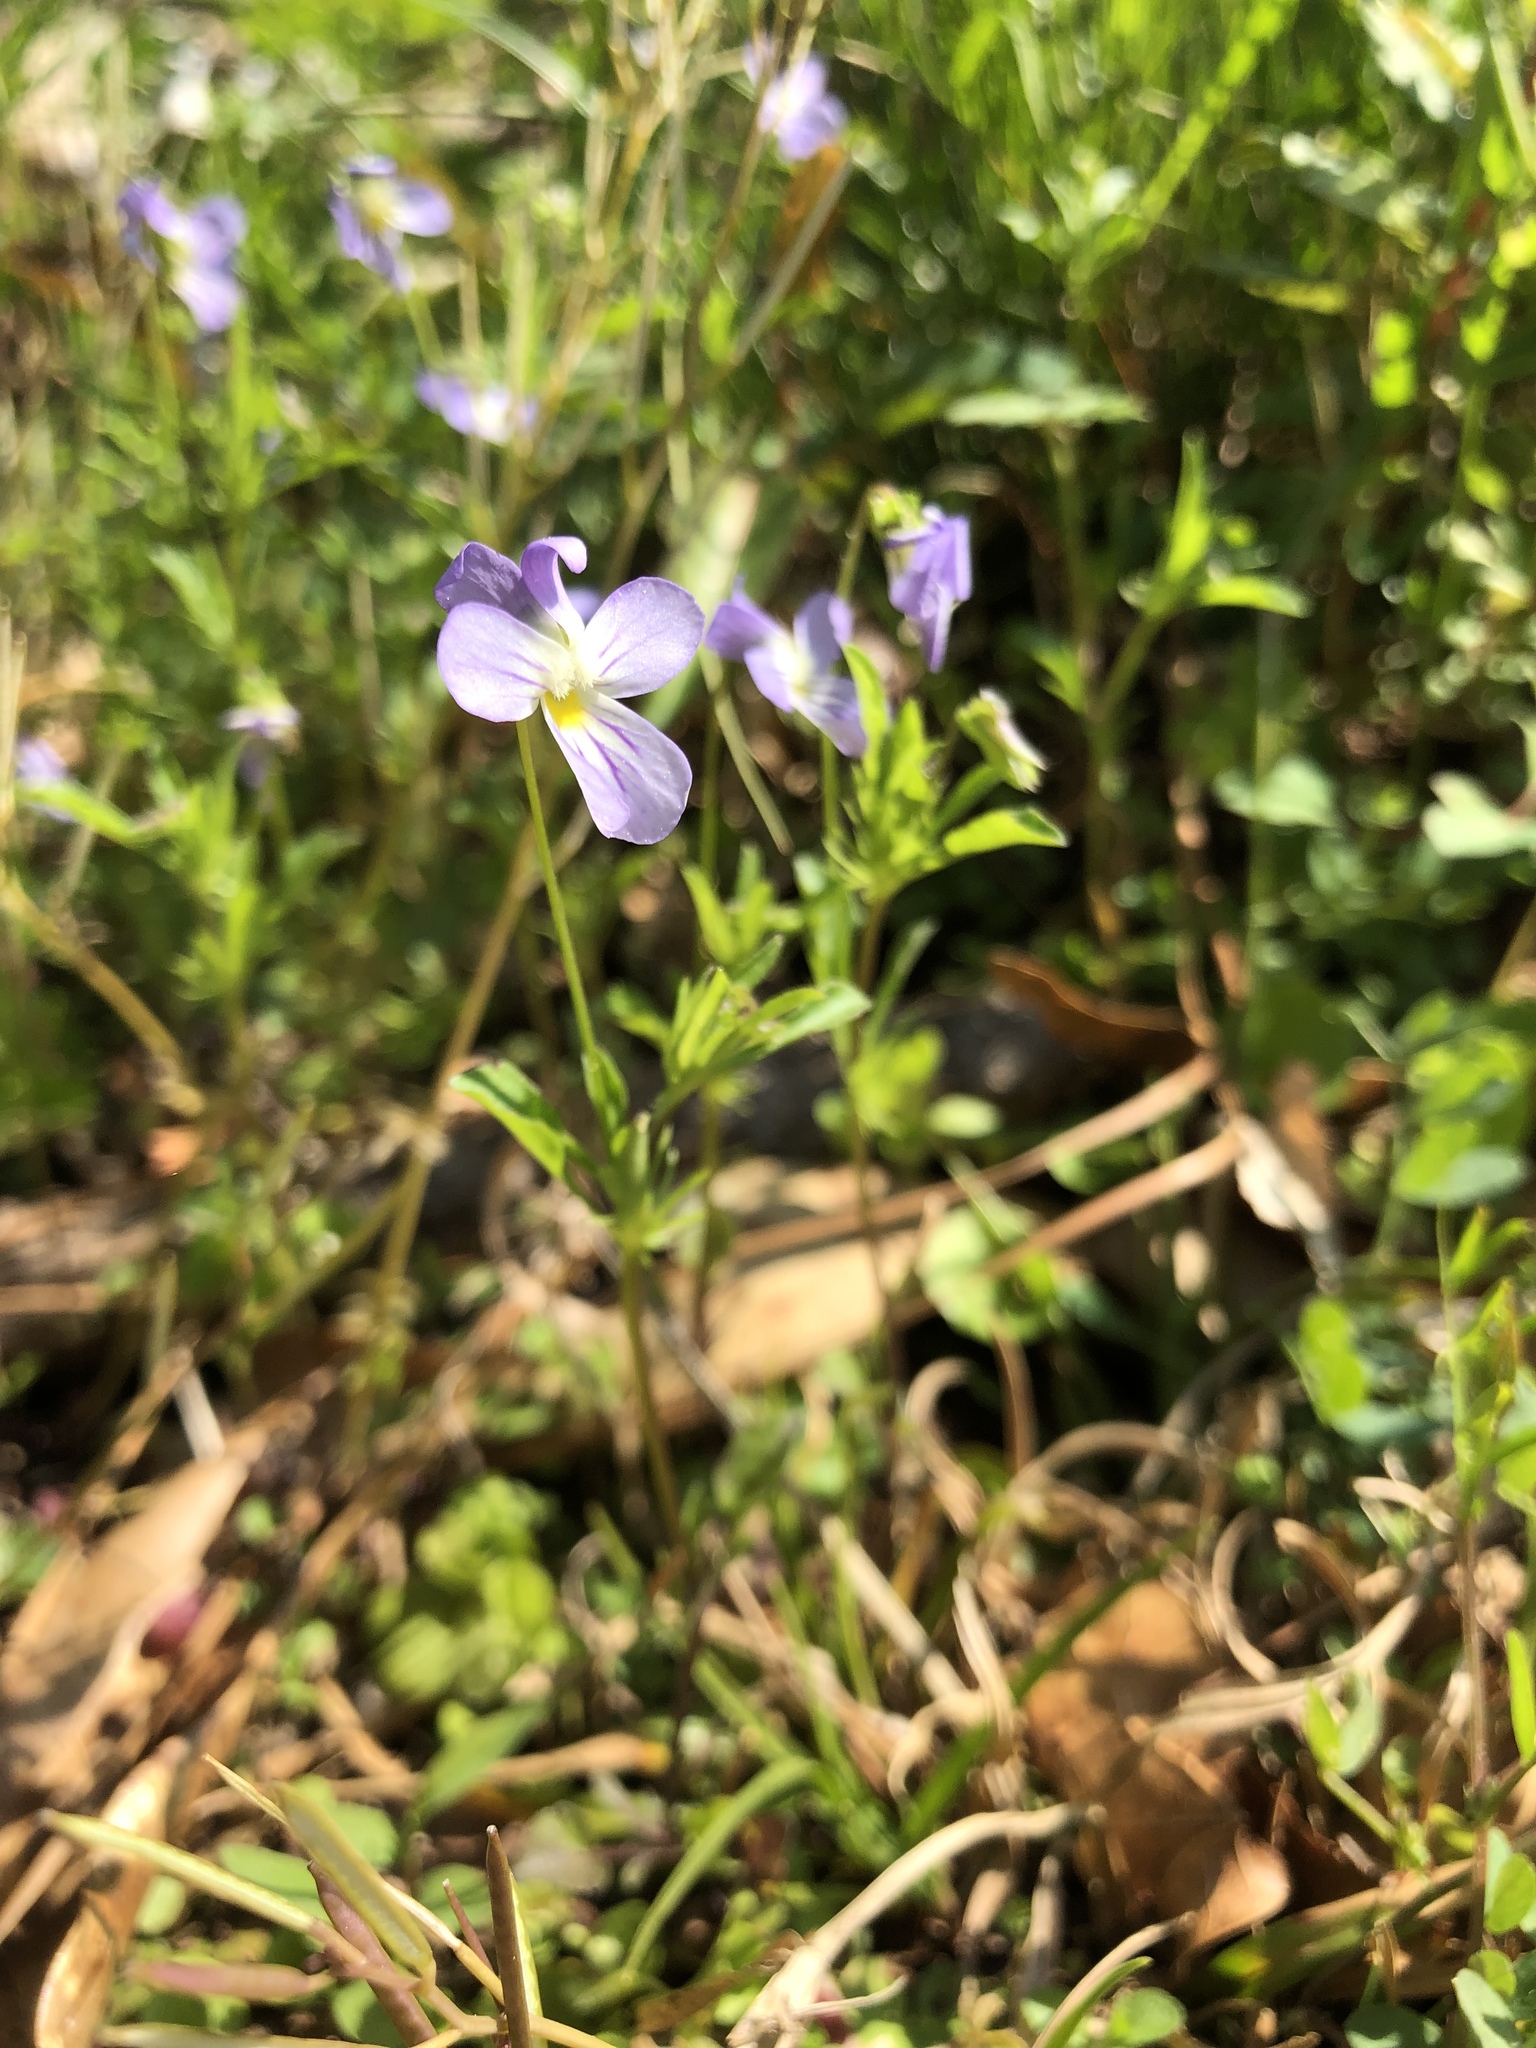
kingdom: Plantae
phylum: Tracheophyta
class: Magnoliopsida
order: Malpighiales
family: Violaceae
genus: Viola
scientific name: Viola rafinesquei
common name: American field pansy
